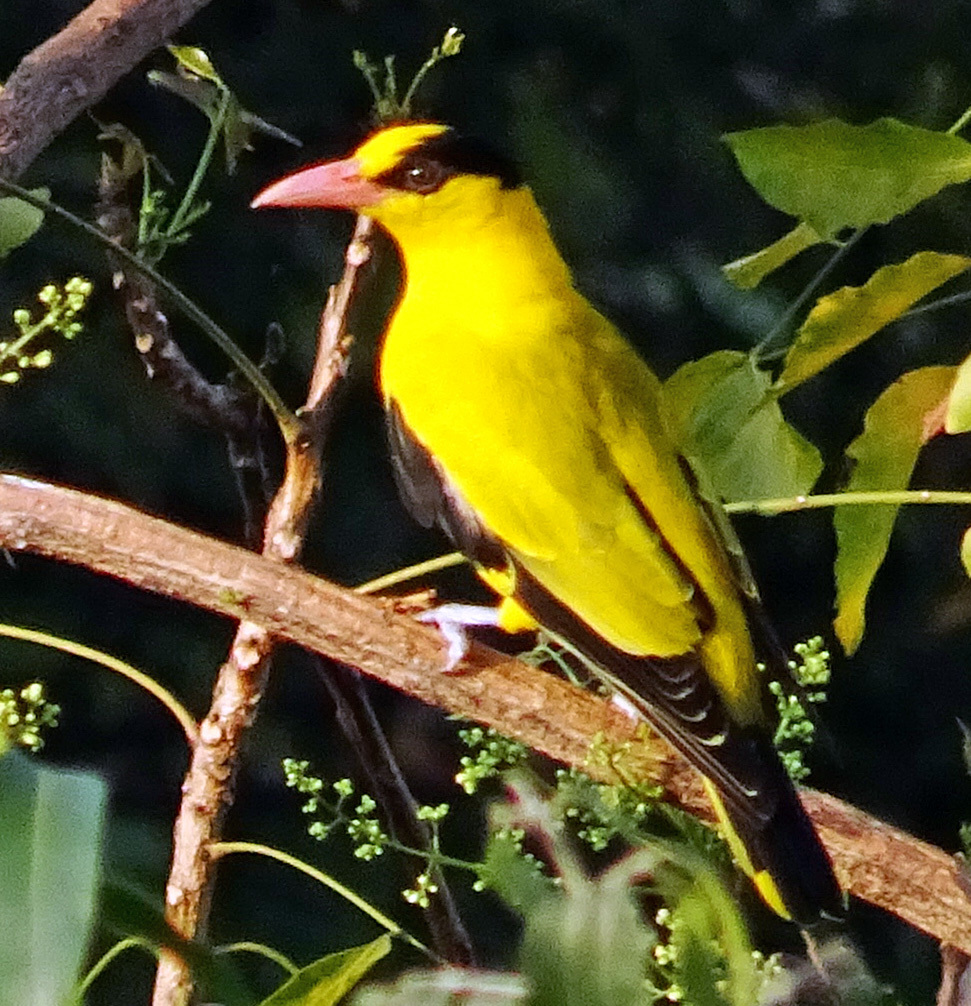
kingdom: Animalia
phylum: Chordata
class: Aves
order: Passeriformes
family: Oriolidae
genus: Oriolus
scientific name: Oriolus chinensis
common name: Black-naped oriole
